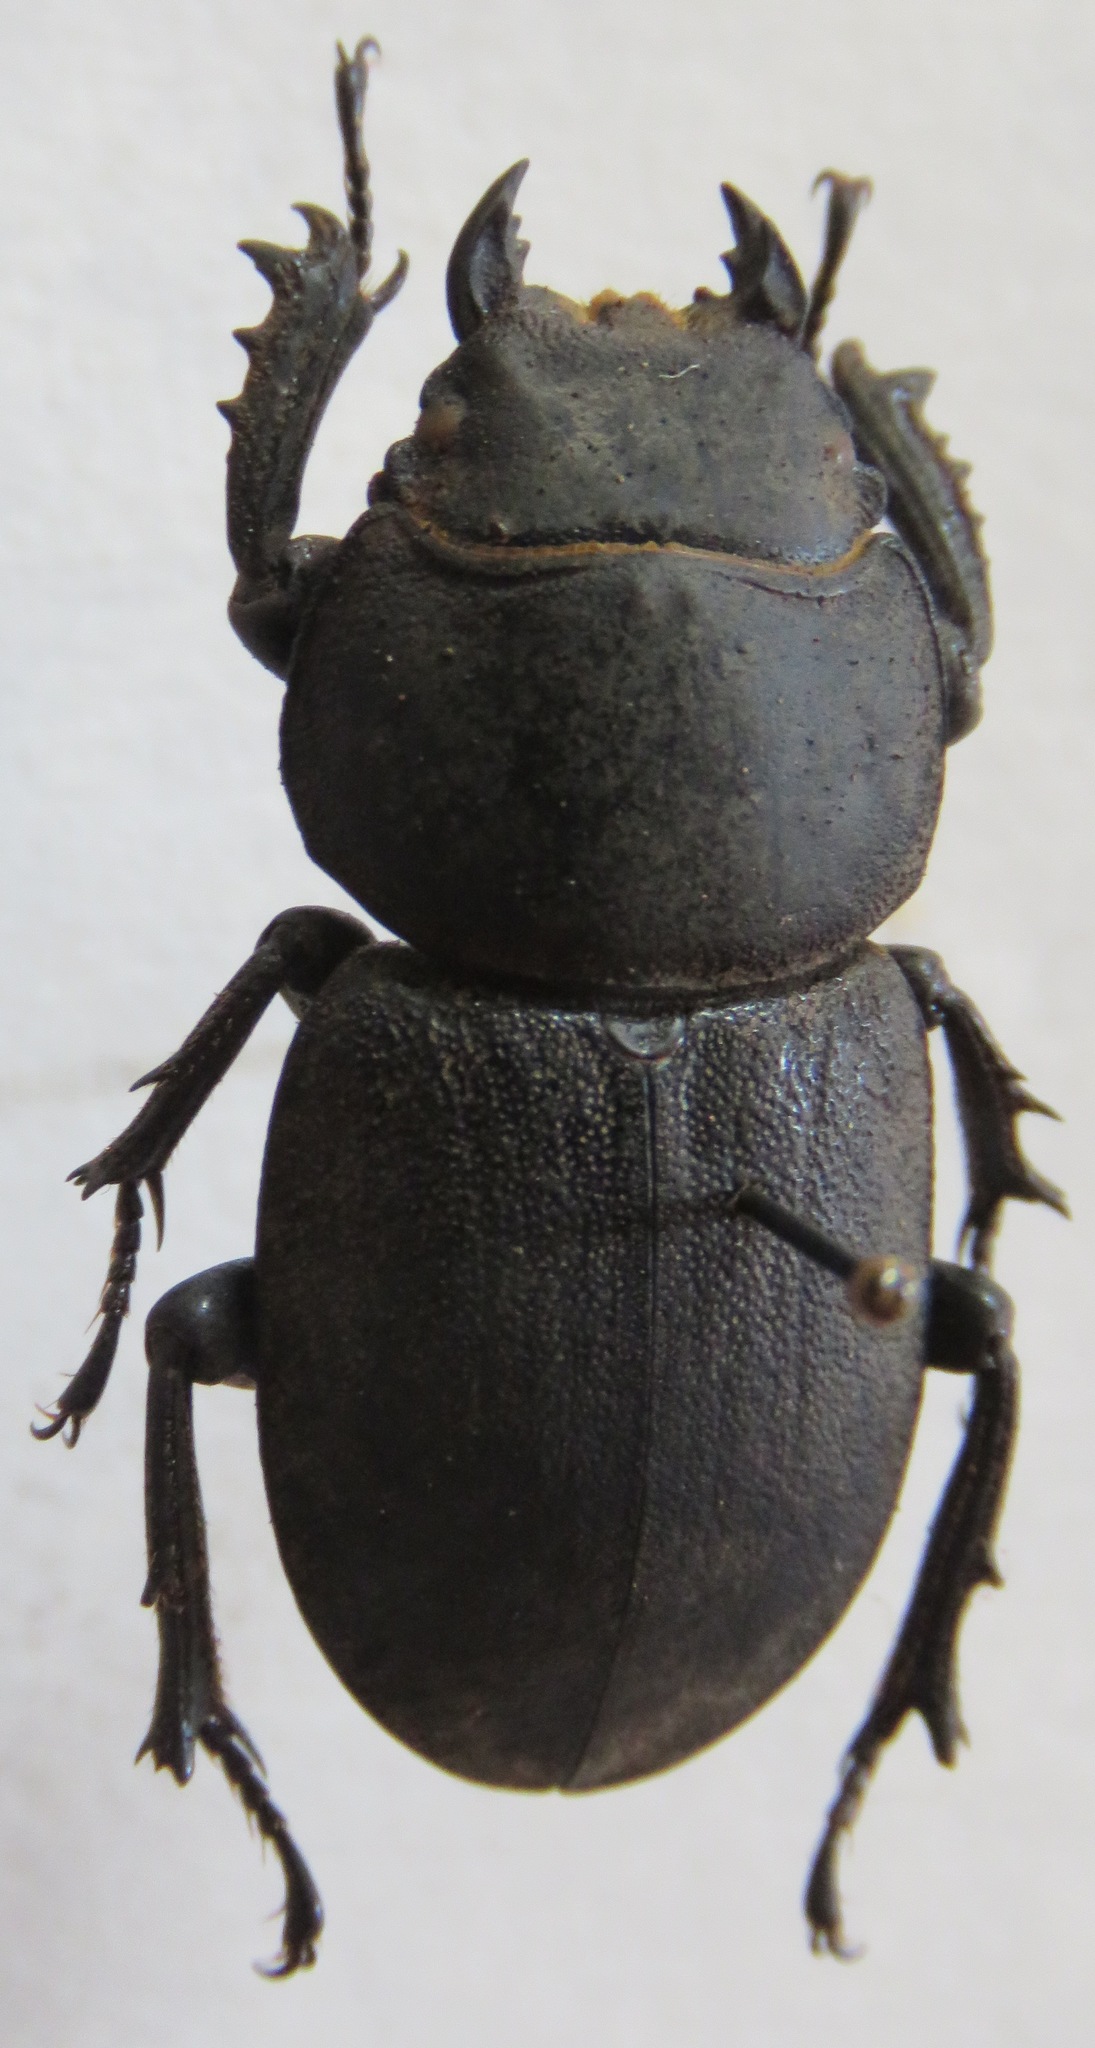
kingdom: Animalia
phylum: Arthropoda
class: Insecta
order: Coleoptera
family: Lucanidae
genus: Apterodorcus
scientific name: Apterodorcus bacchus
